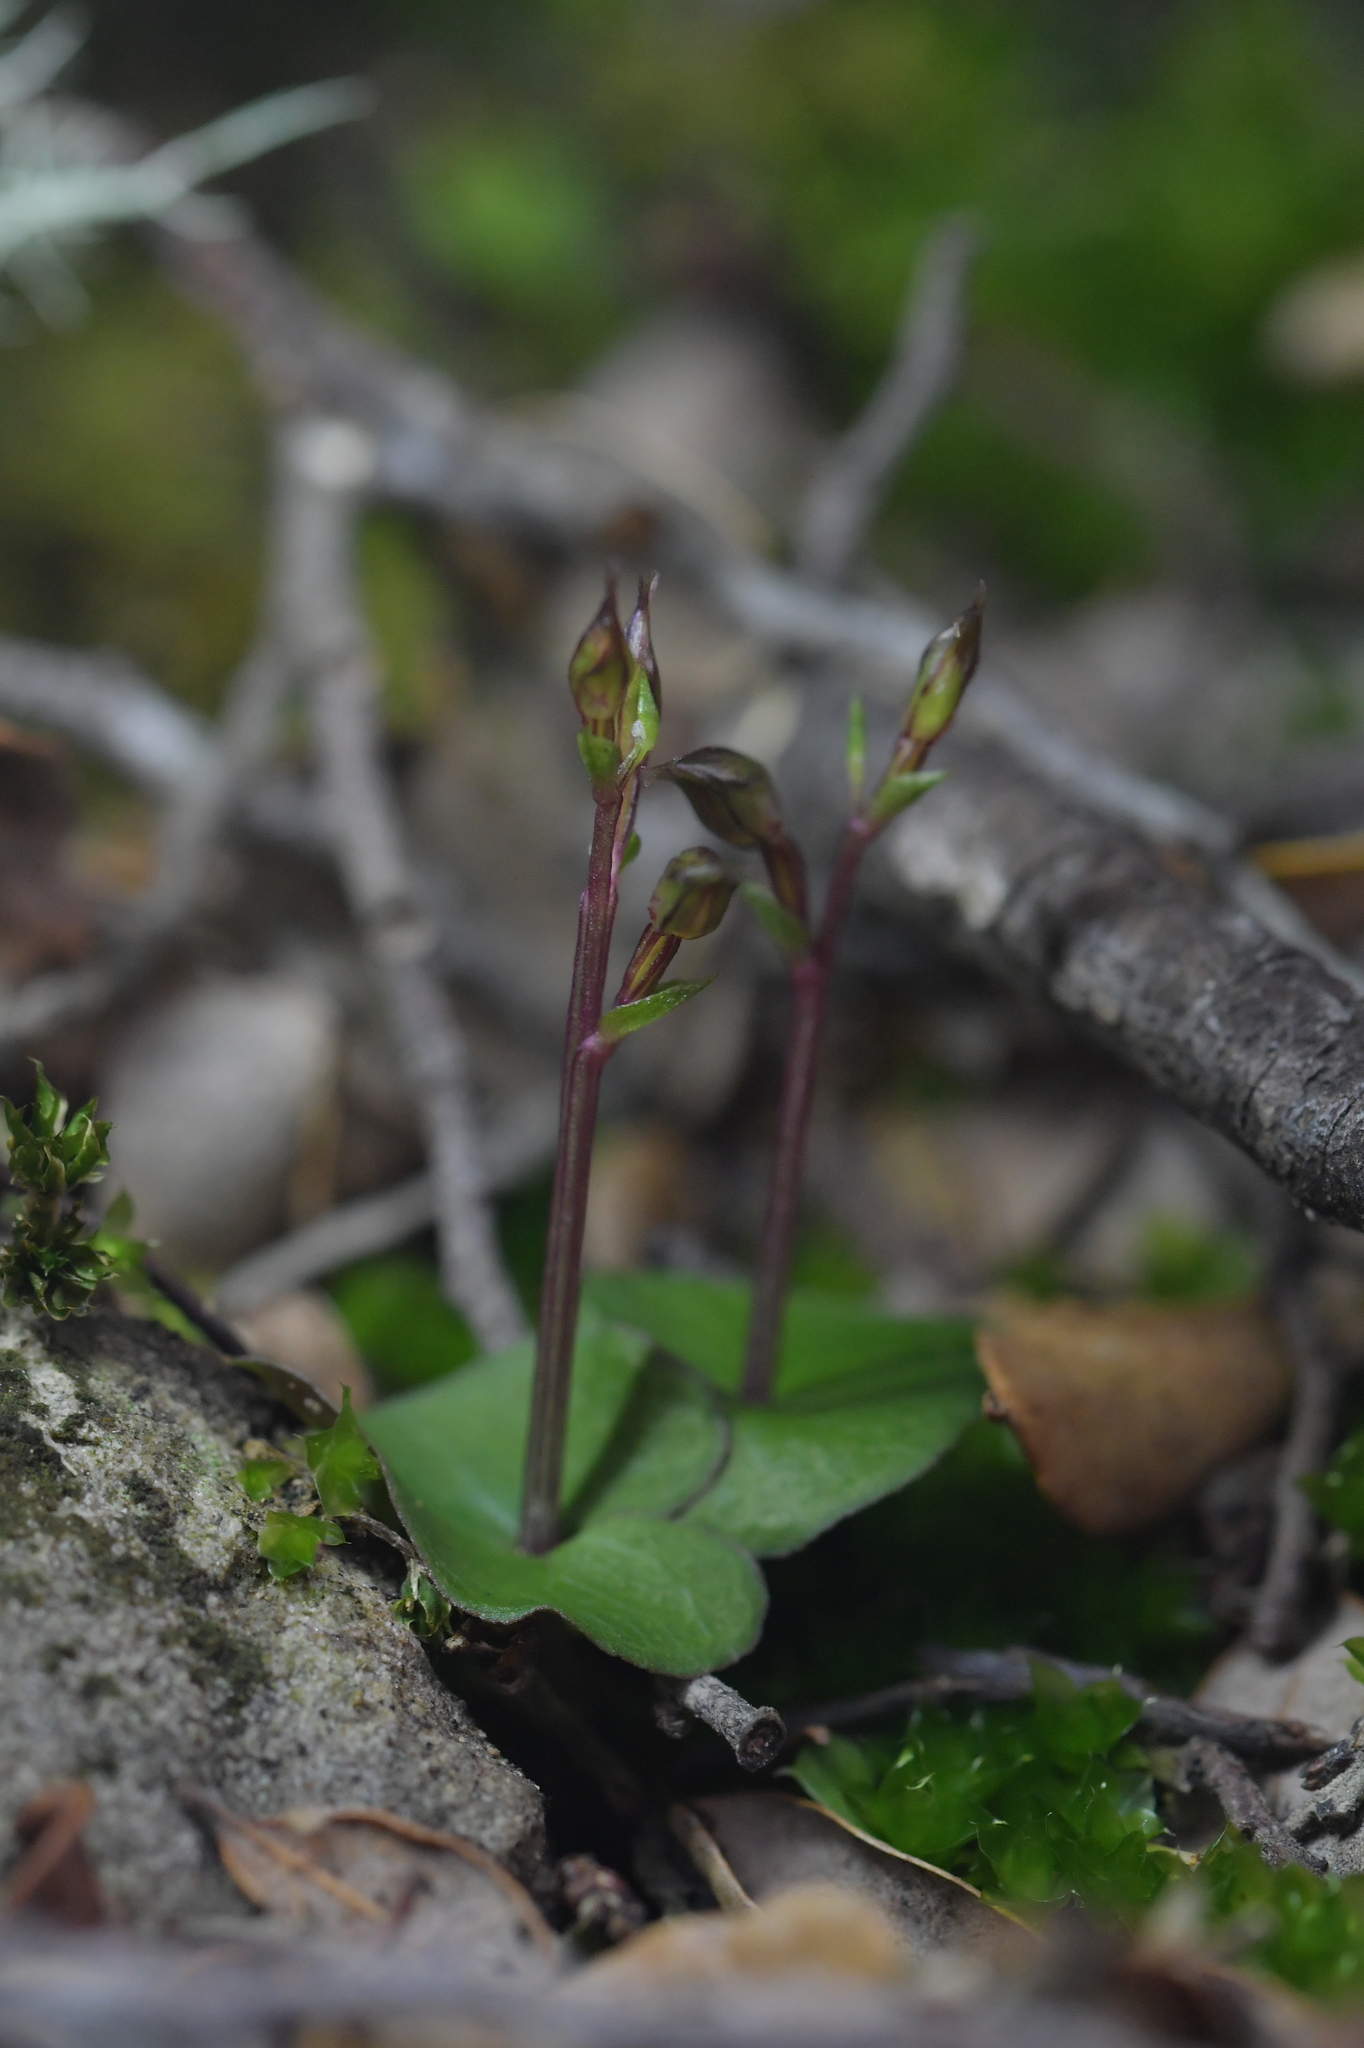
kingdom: Plantae
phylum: Tracheophyta
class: Liliopsida
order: Asparagales
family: Orchidaceae
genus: Acianthus
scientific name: Acianthus sinclairii
